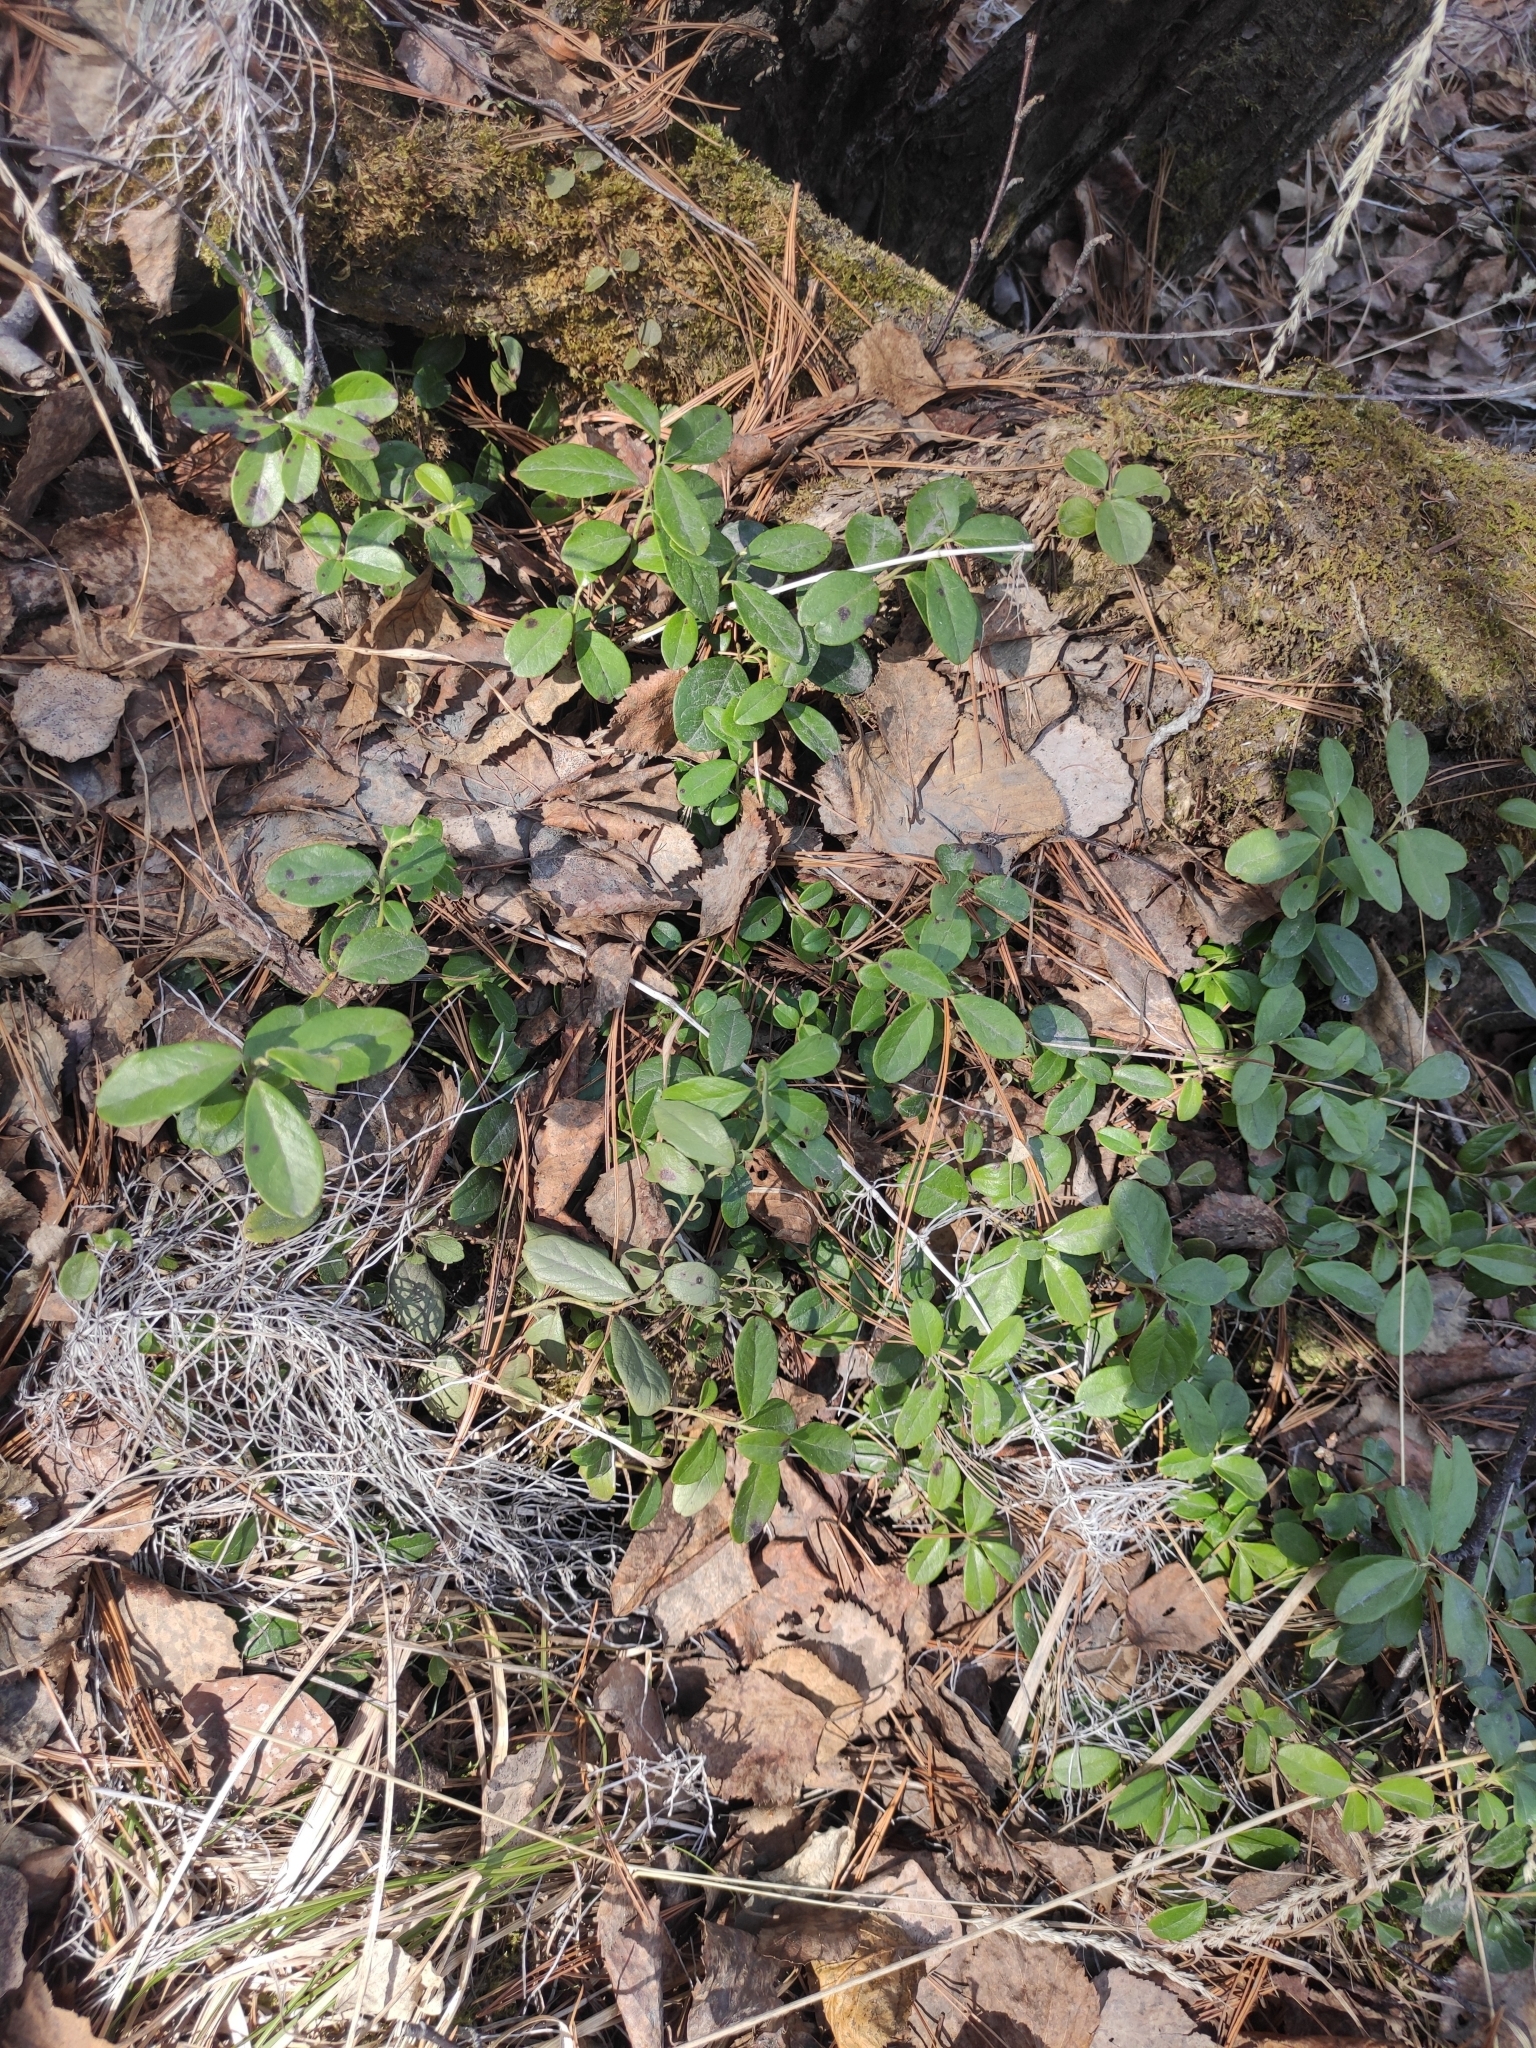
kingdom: Plantae
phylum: Tracheophyta
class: Magnoliopsida
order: Ericales
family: Ericaceae
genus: Vaccinium
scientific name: Vaccinium vitis-idaea
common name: Cowberry
